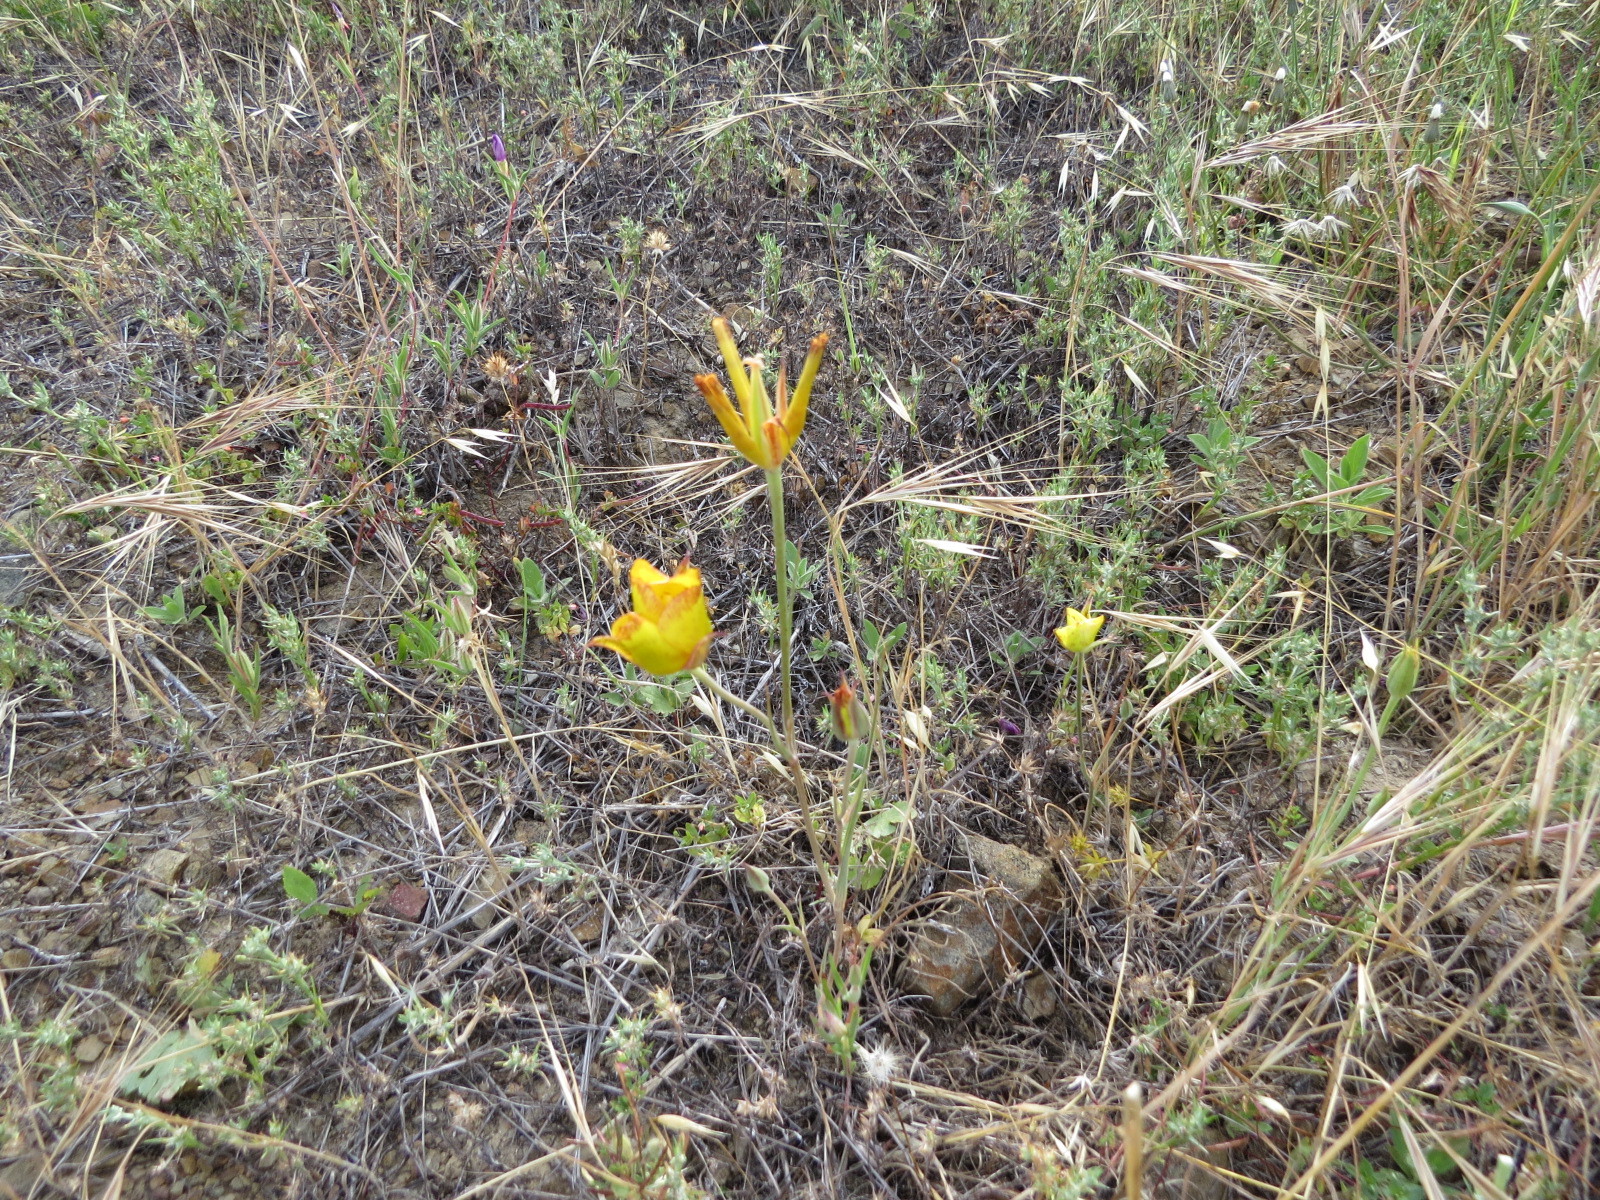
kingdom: Plantae
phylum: Tracheophyta
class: Liliopsida
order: Liliales
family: Liliaceae
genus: Calochortus
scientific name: Calochortus luteus
